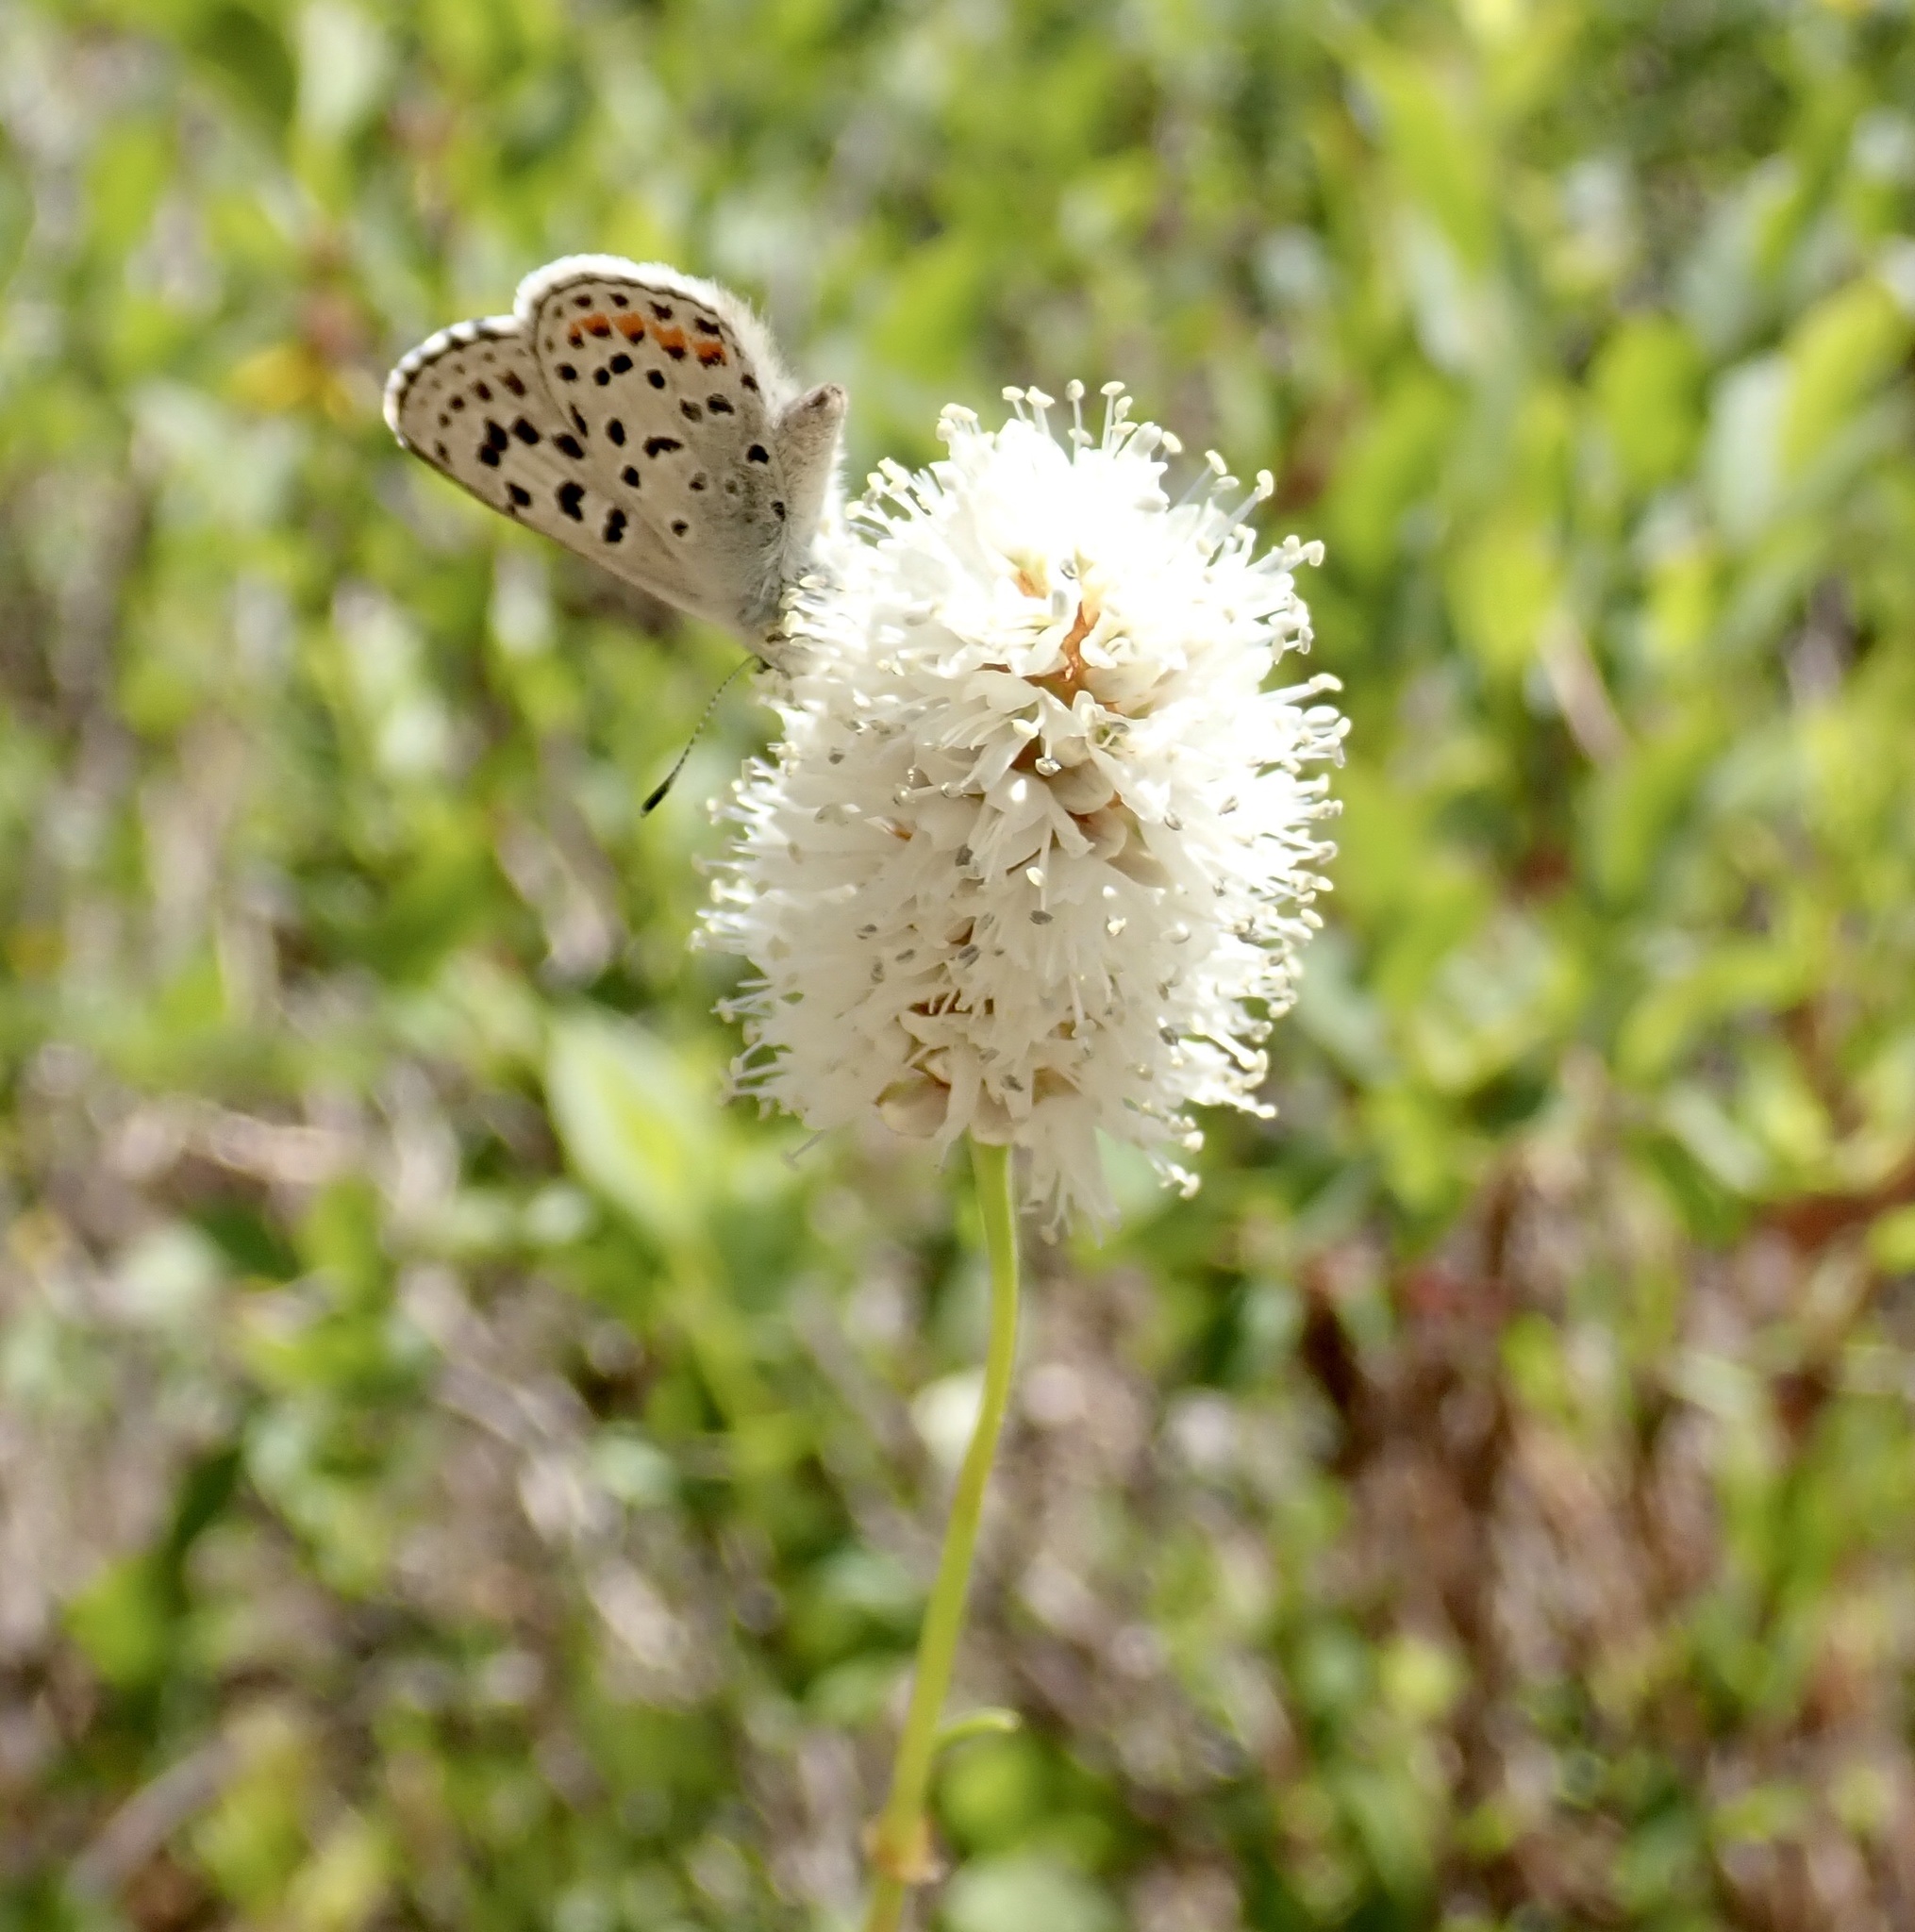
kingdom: Plantae
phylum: Tracheophyta
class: Magnoliopsida
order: Caryophyllales
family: Polygonaceae
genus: Bistorta
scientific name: Bistorta bistortoides
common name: American bistort
